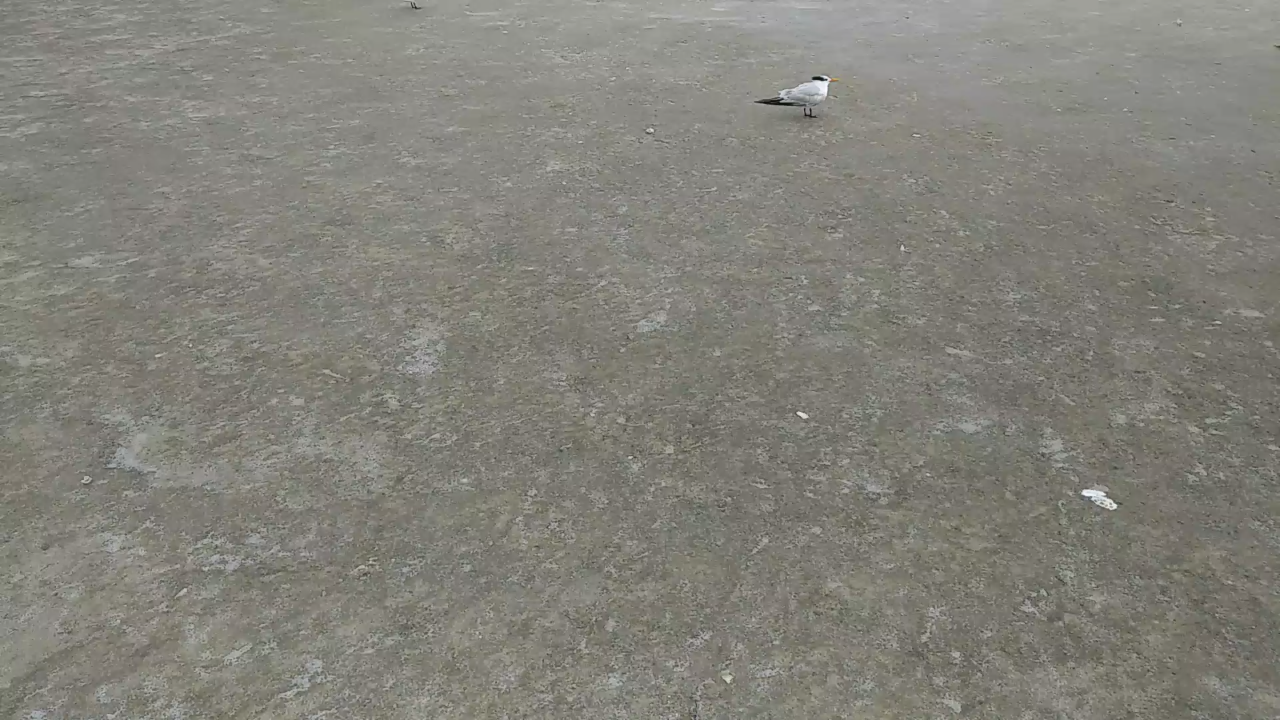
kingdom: Animalia
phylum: Chordata
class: Aves
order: Charadriiformes
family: Laridae
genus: Thalasseus
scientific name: Thalasseus maximus
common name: Royal tern
